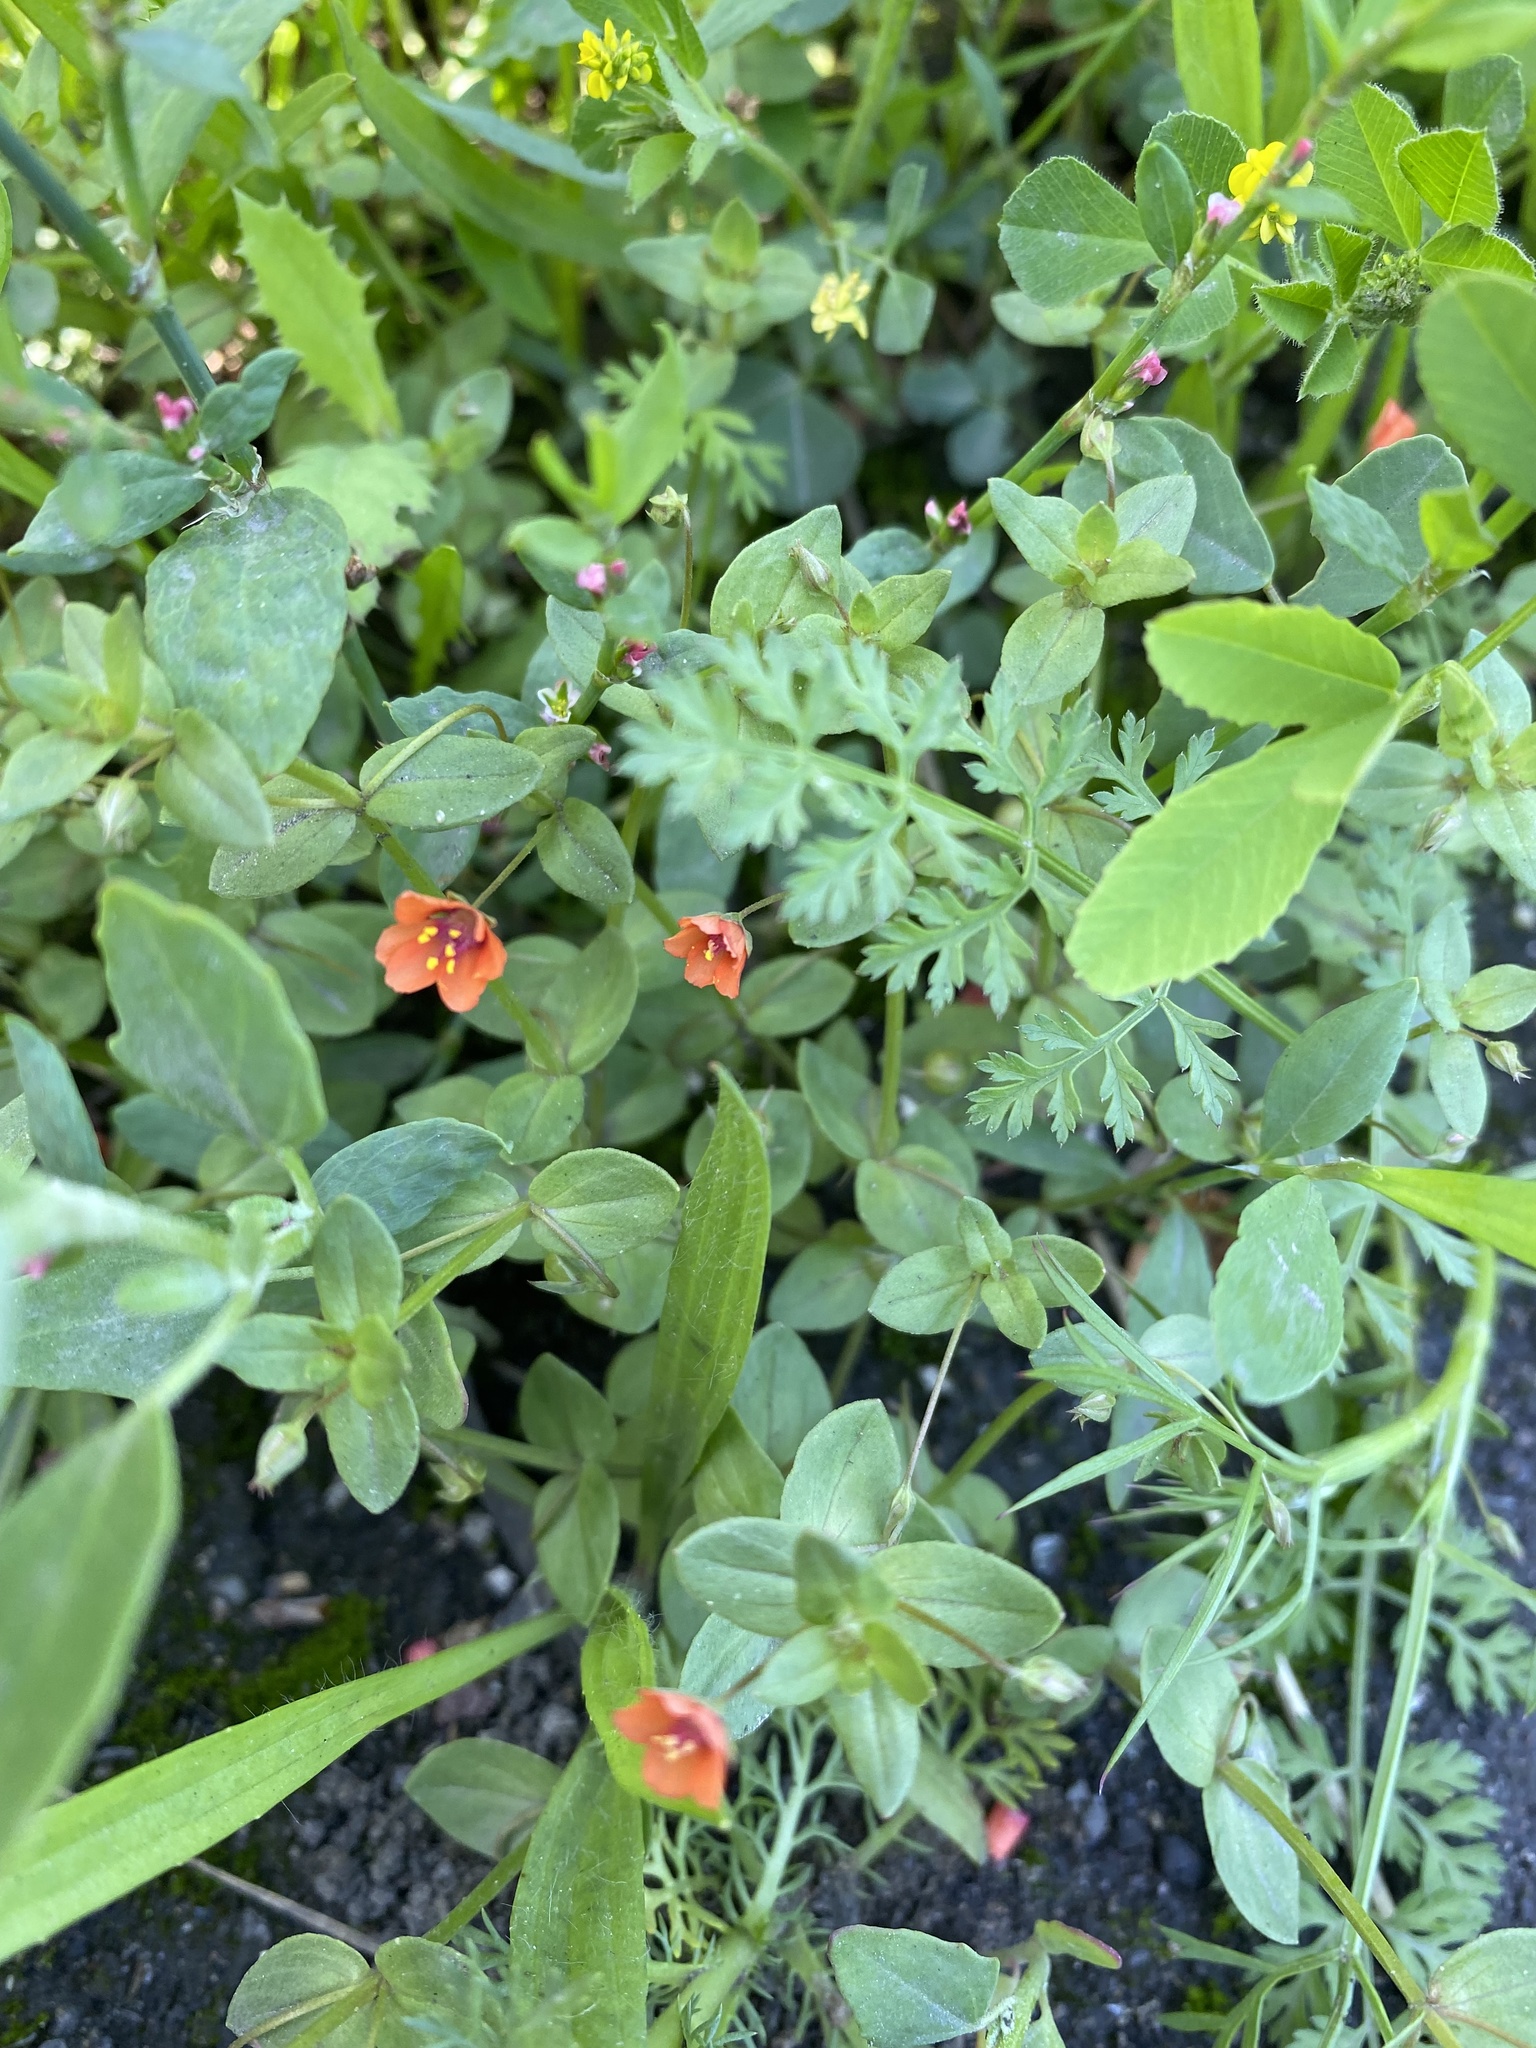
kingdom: Plantae
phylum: Tracheophyta
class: Magnoliopsida
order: Ericales
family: Primulaceae
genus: Lysimachia
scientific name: Lysimachia arvensis
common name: Scarlet pimpernel
